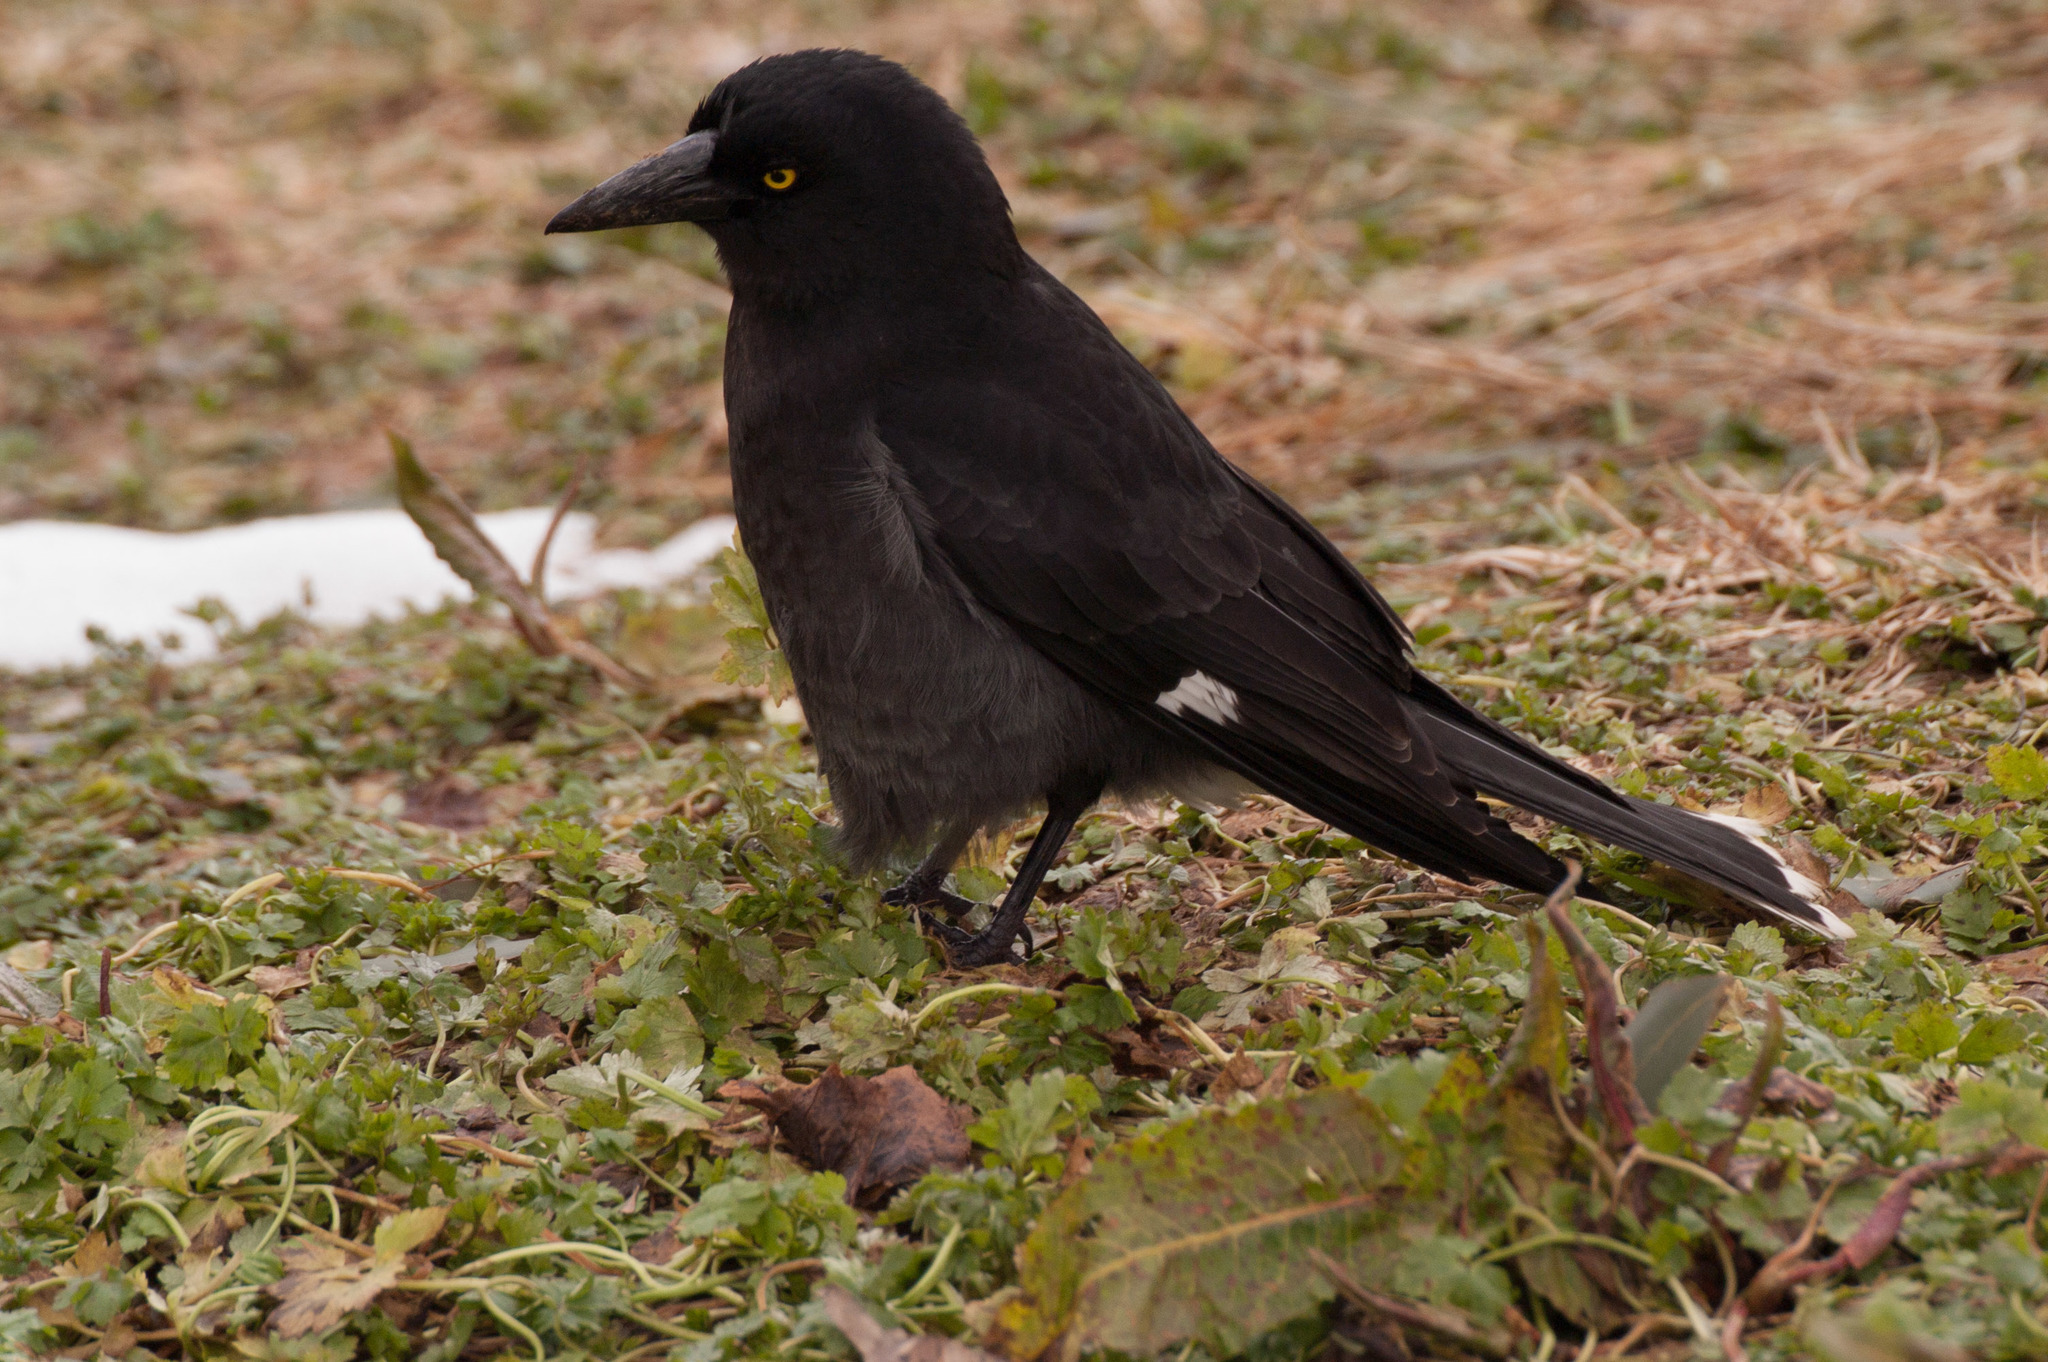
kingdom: Animalia
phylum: Chordata
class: Aves
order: Passeriformes
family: Cracticidae
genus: Strepera
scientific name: Strepera graculina
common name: Pied currawong
